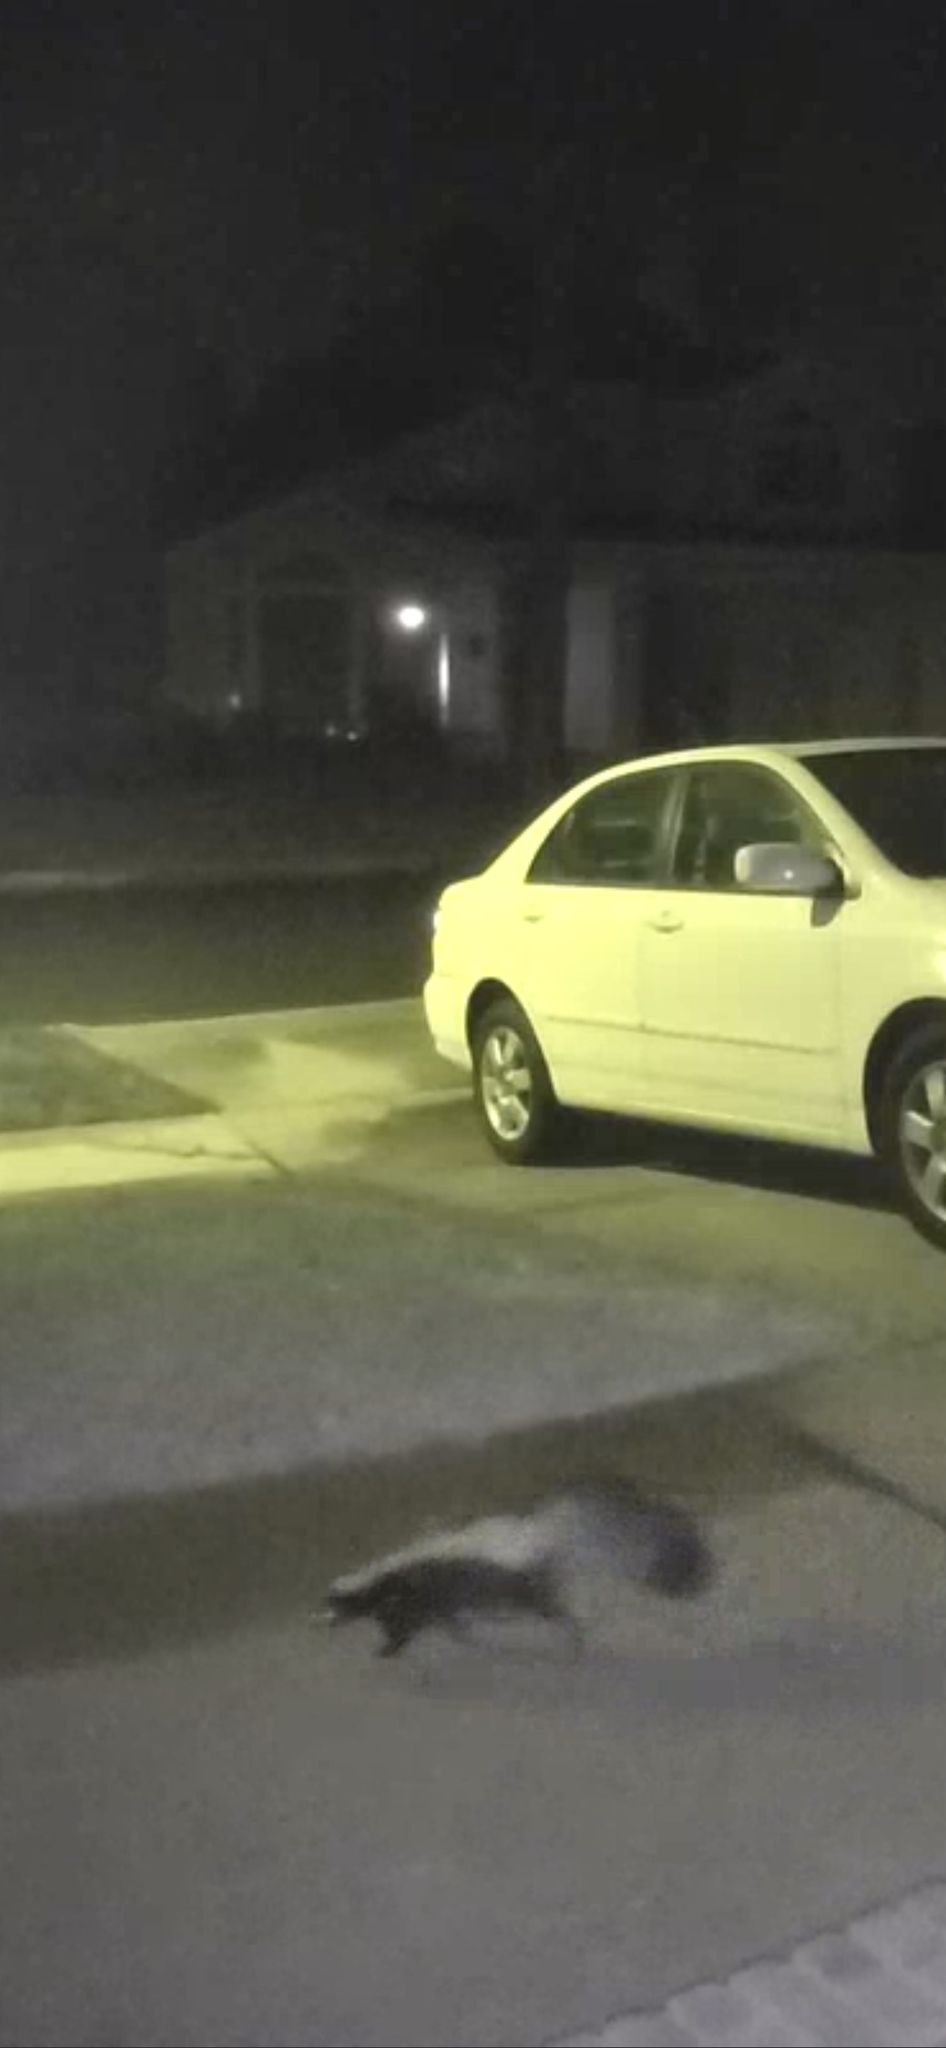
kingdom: Animalia
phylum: Chordata
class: Mammalia
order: Carnivora
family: Mephitidae
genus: Mephitis
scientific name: Mephitis mephitis
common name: Striped skunk
